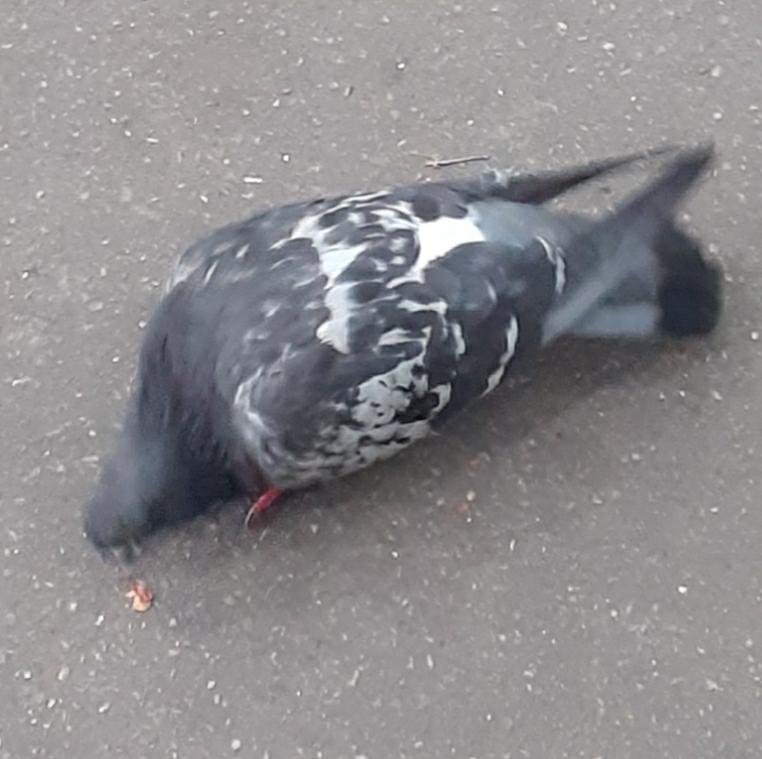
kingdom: Animalia
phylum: Chordata
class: Aves
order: Columbiformes
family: Columbidae
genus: Columba
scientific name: Columba livia
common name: Rock pigeon
